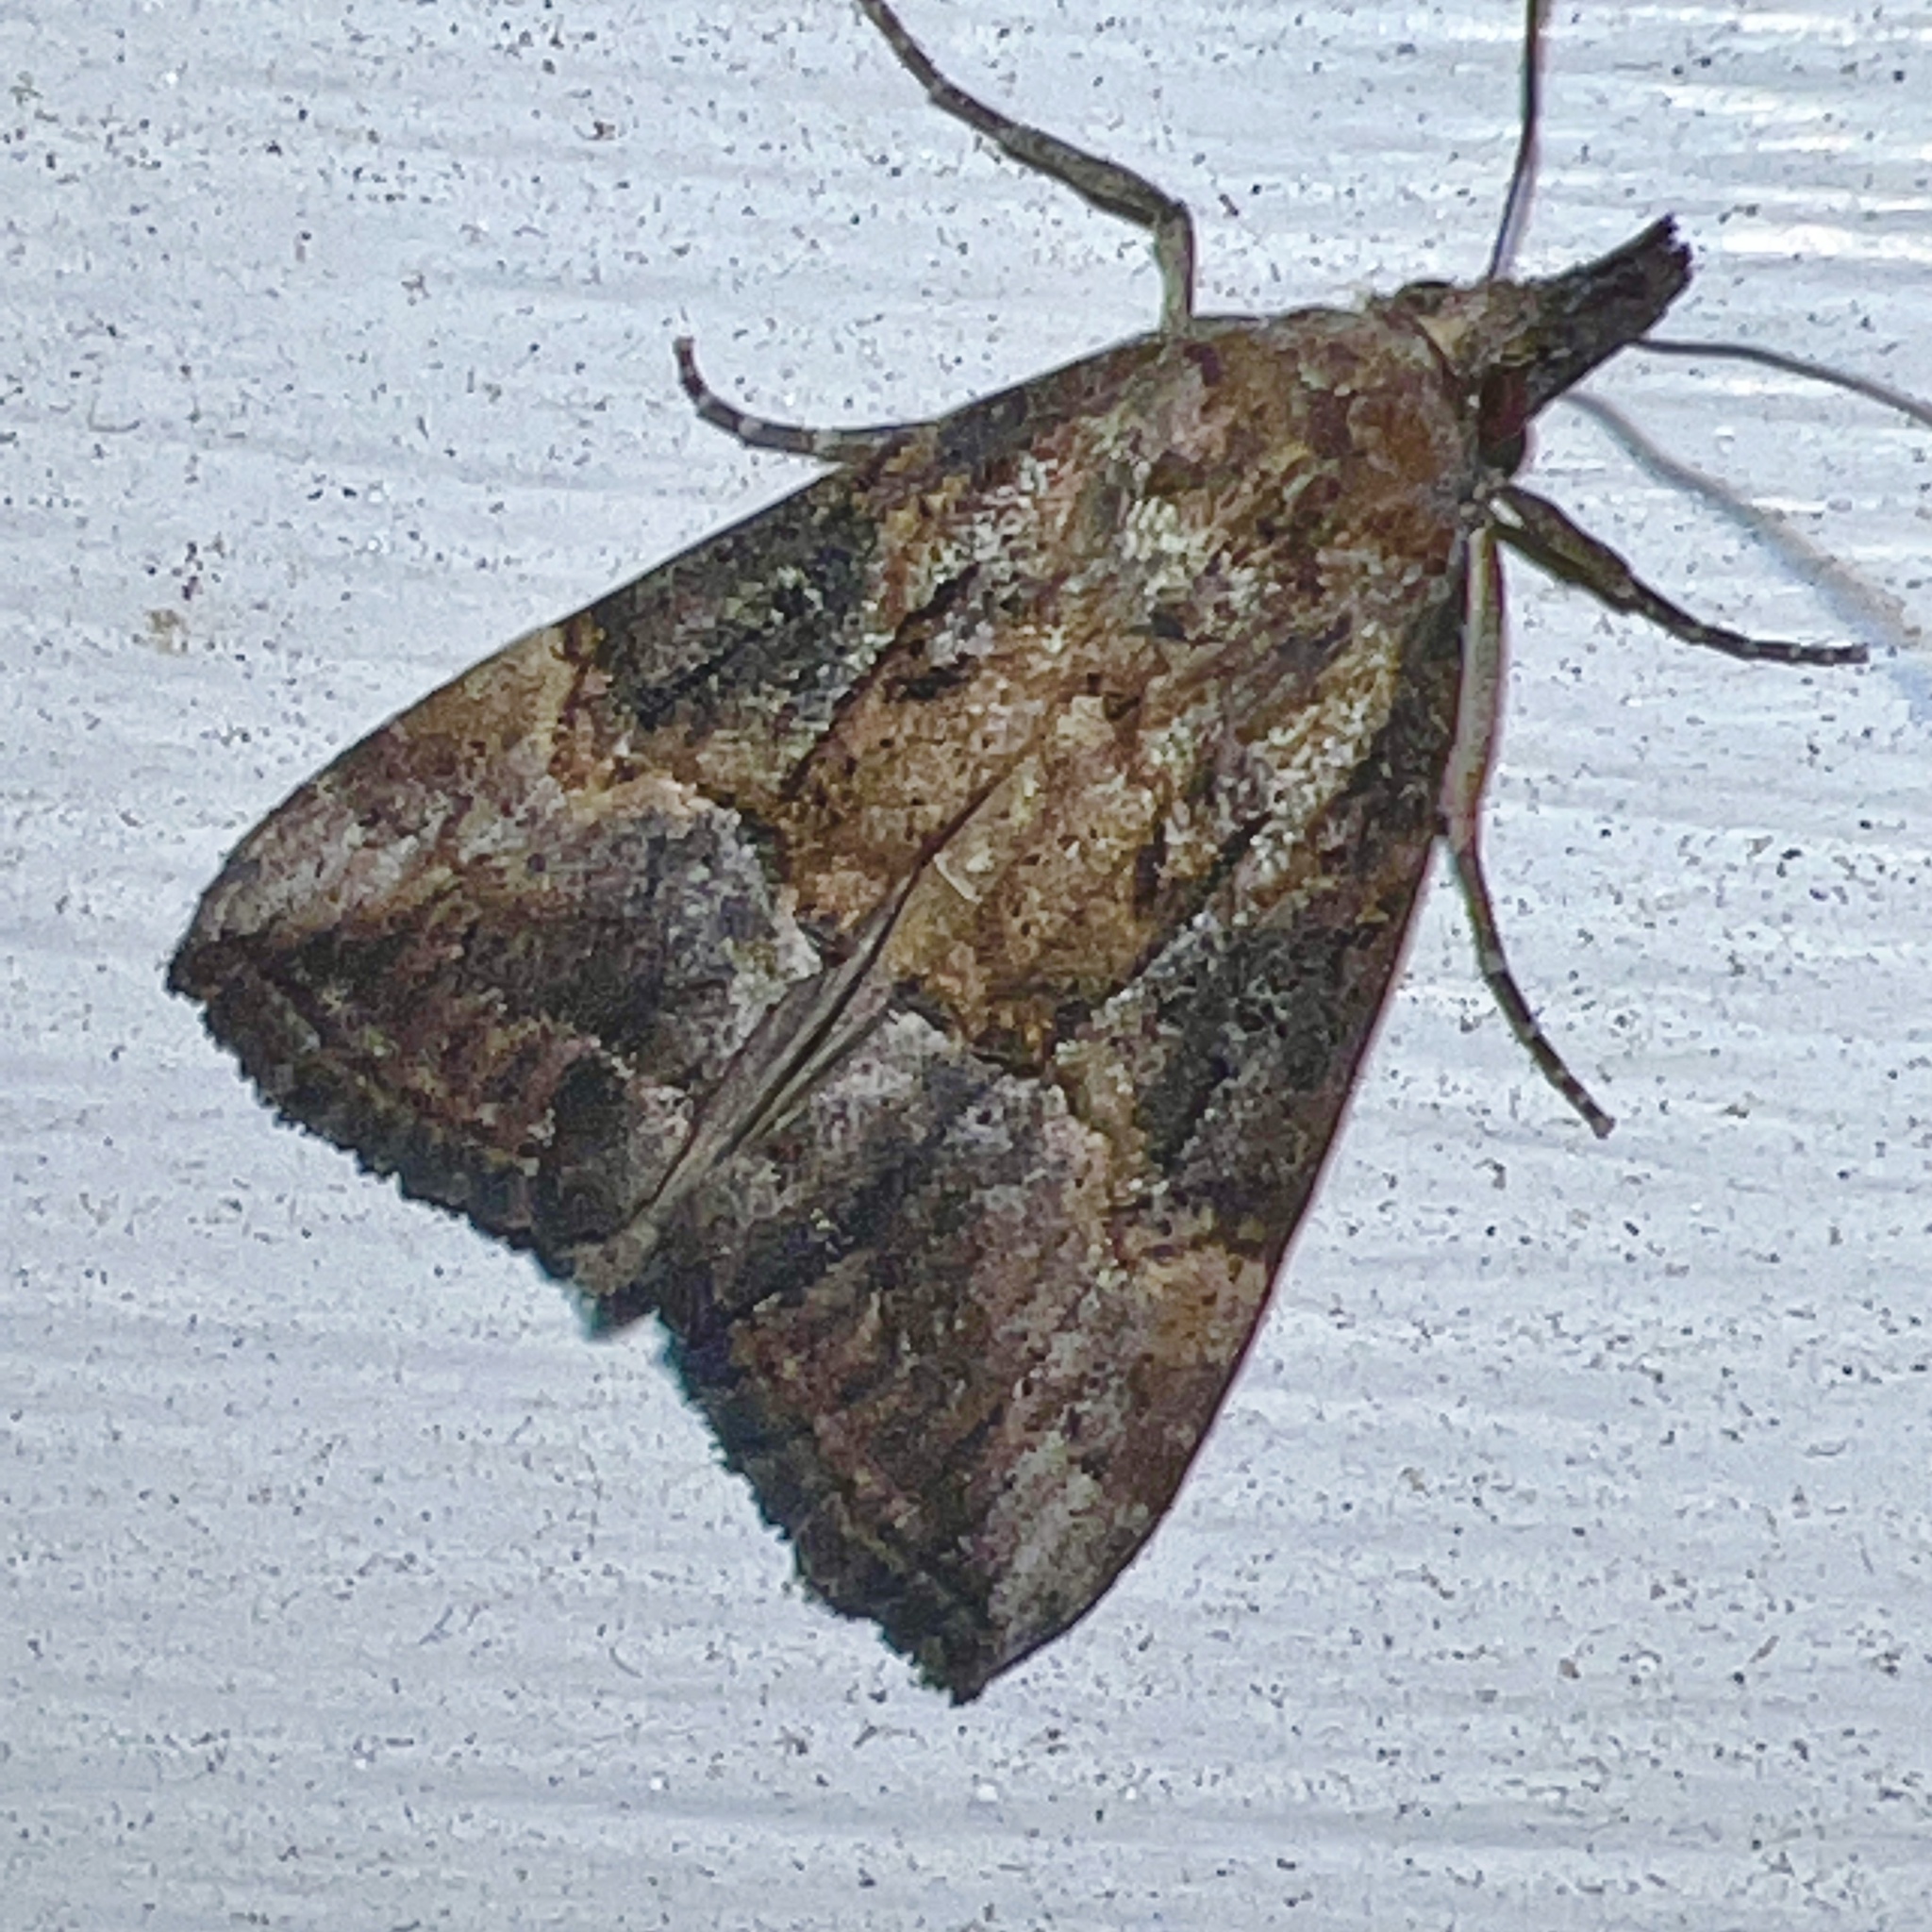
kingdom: Animalia
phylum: Arthropoda
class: Insecta
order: Lepidoptera
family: Erebidae
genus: Hypena
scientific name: Hypena scabra
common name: Green cloverworm
